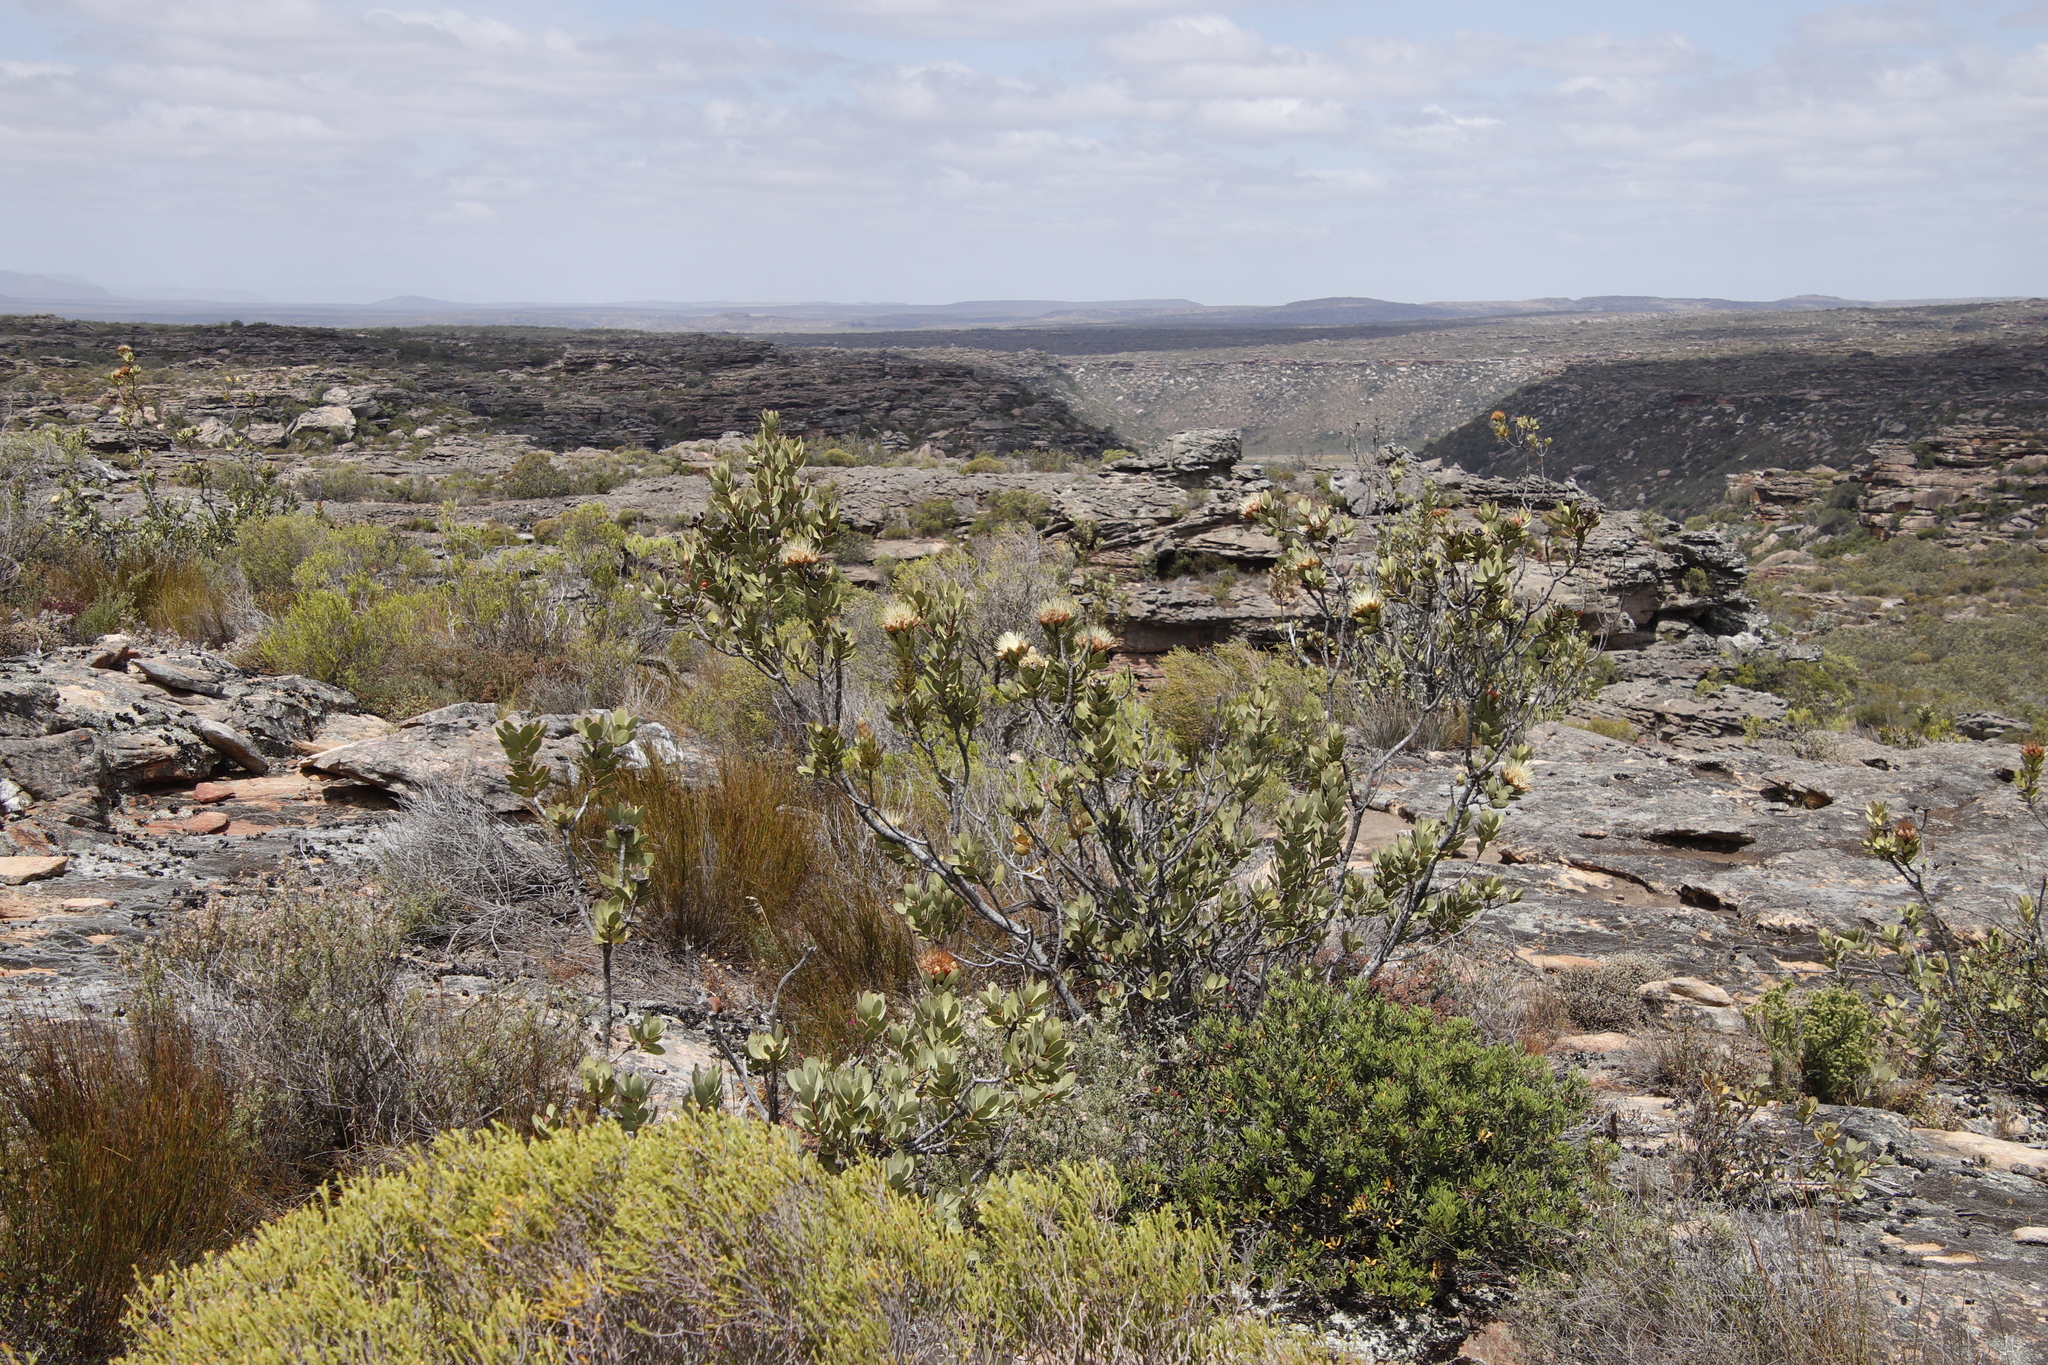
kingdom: Plantae
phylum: Tracheophyta
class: Magnoliopsida
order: Proteales
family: Proteaceae
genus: Protea
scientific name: Protea glabra
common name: Chestnut sugarbush
